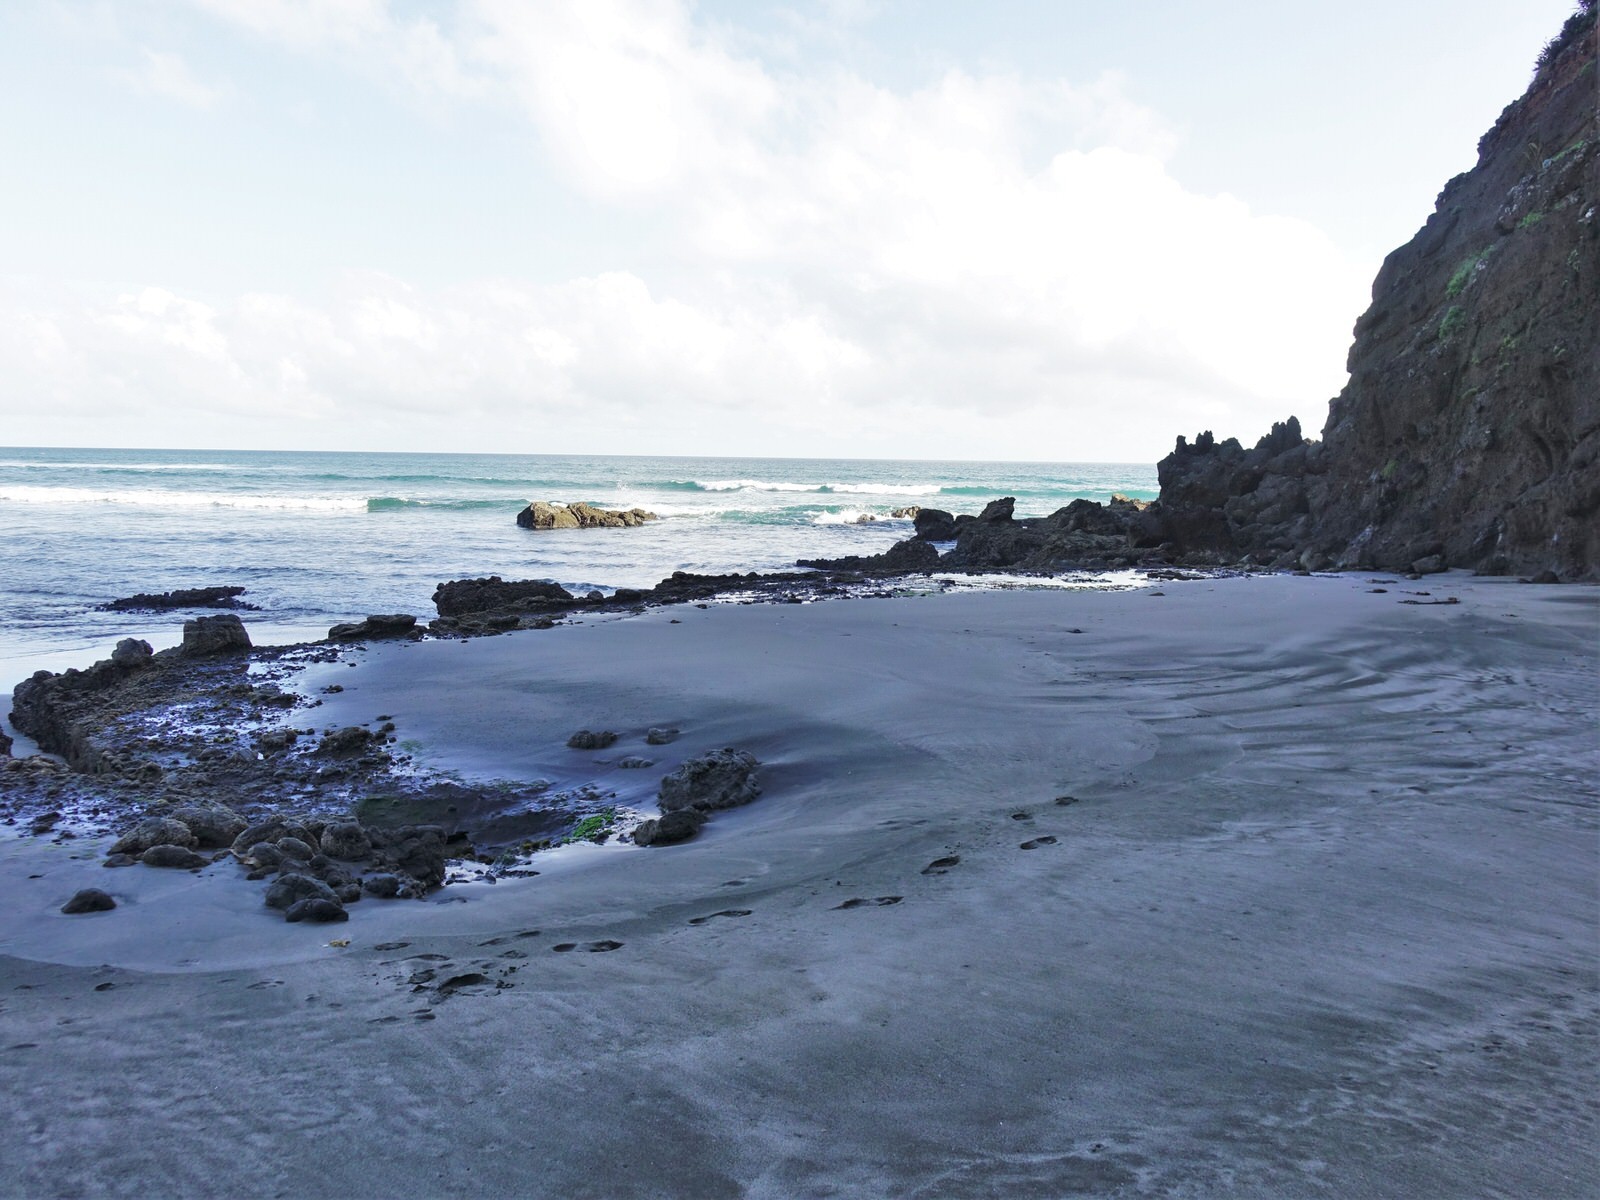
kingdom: Chromista
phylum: Ochrophyta
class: Phaeophyceae
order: Fucales
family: Hormosiraceae
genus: Hormosira
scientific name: Hormosira banksii
